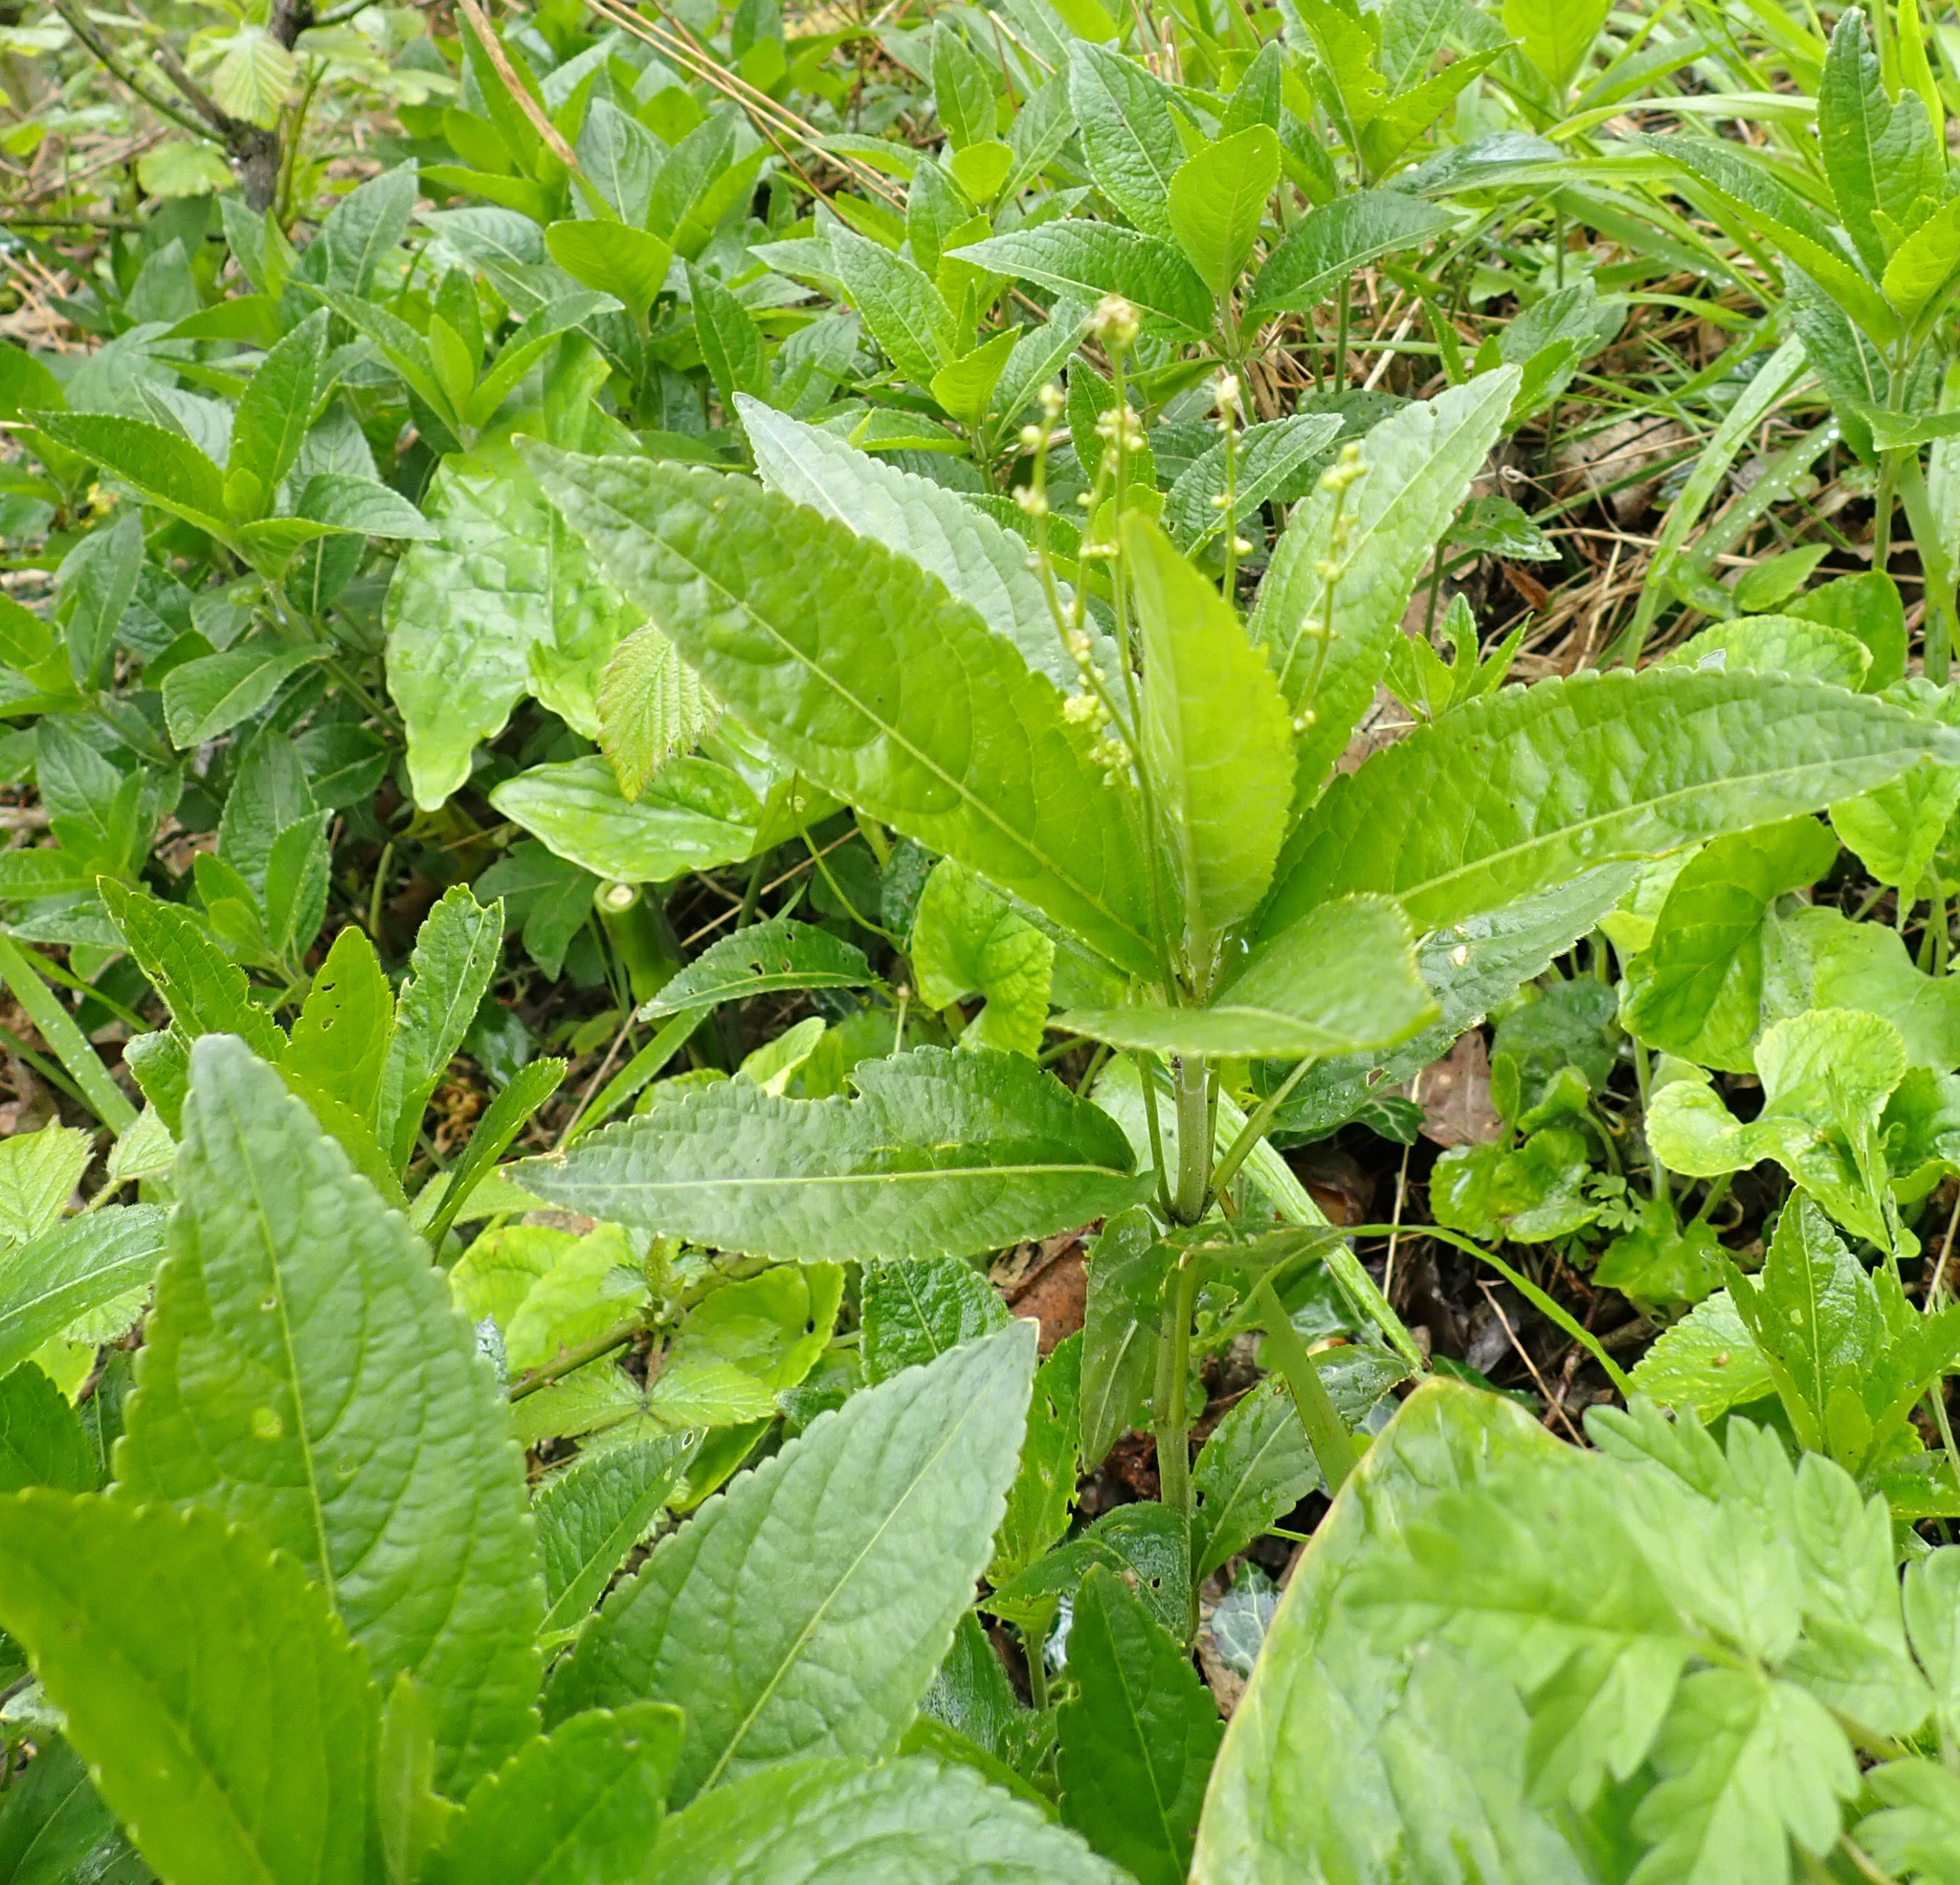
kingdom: Plantae
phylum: Tracheophyta
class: Magnoliopsida
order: Malpighiales
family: Euphorbiaceae
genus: Mercurialis
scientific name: Mercurialis perennis
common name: Dog mercury
